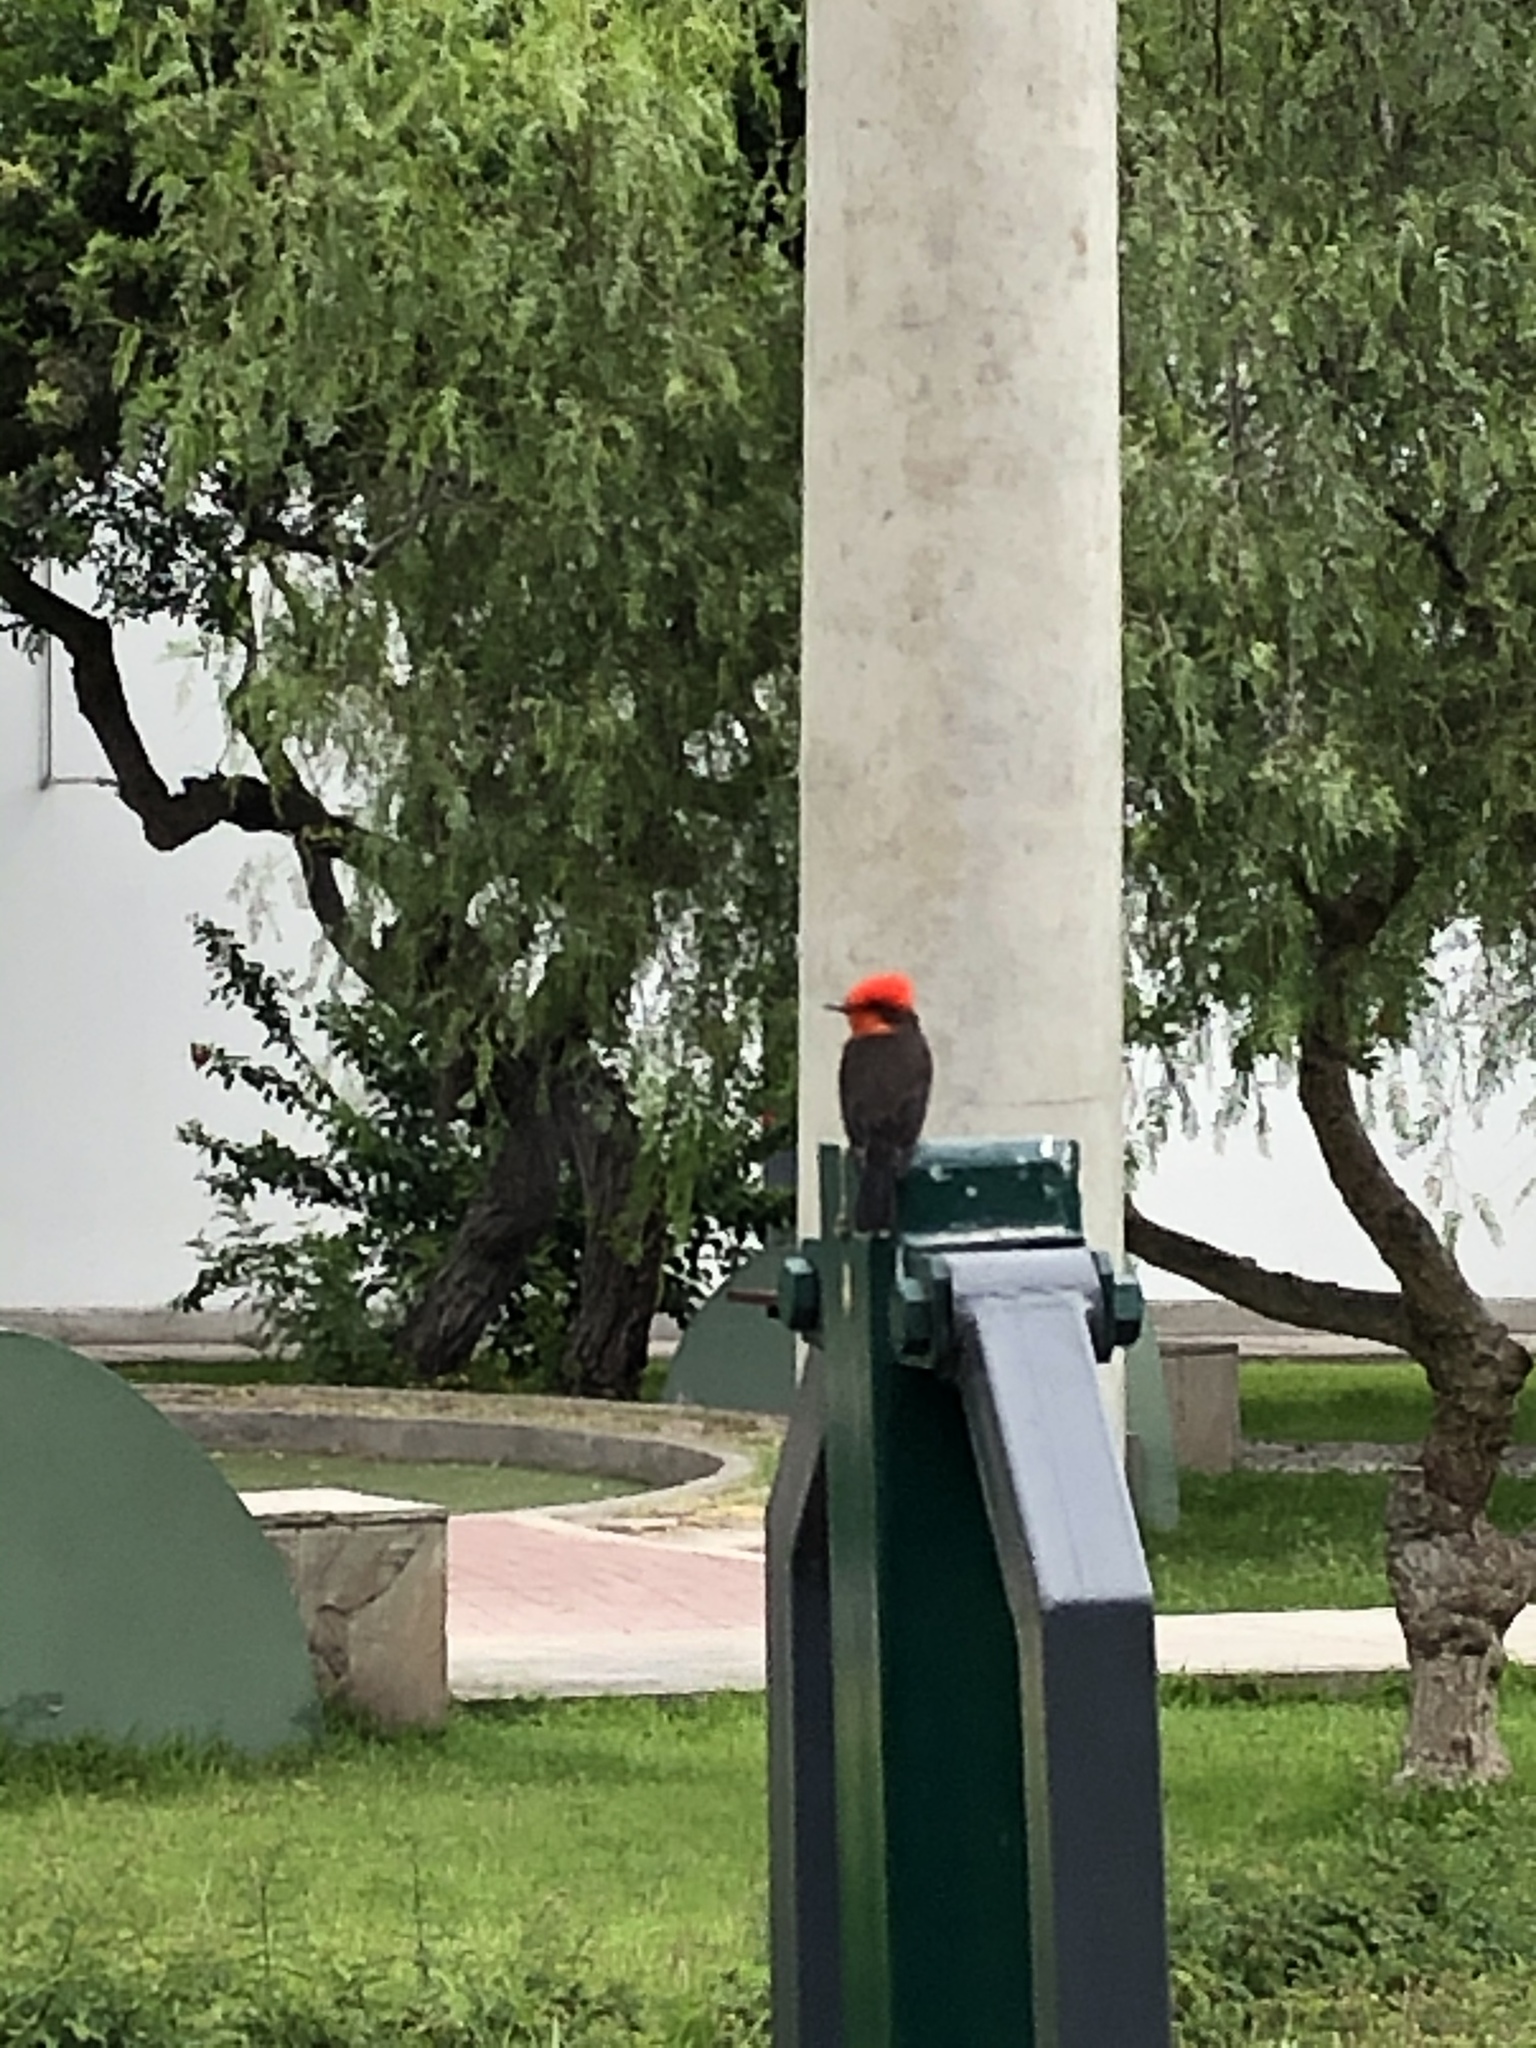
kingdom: Animalia
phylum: Chordata
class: Aves
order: Passeriformes
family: Tyrannidae
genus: Pyrocephalus
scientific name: Pyrocephalus rubinus
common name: Vermilion flycatcher
